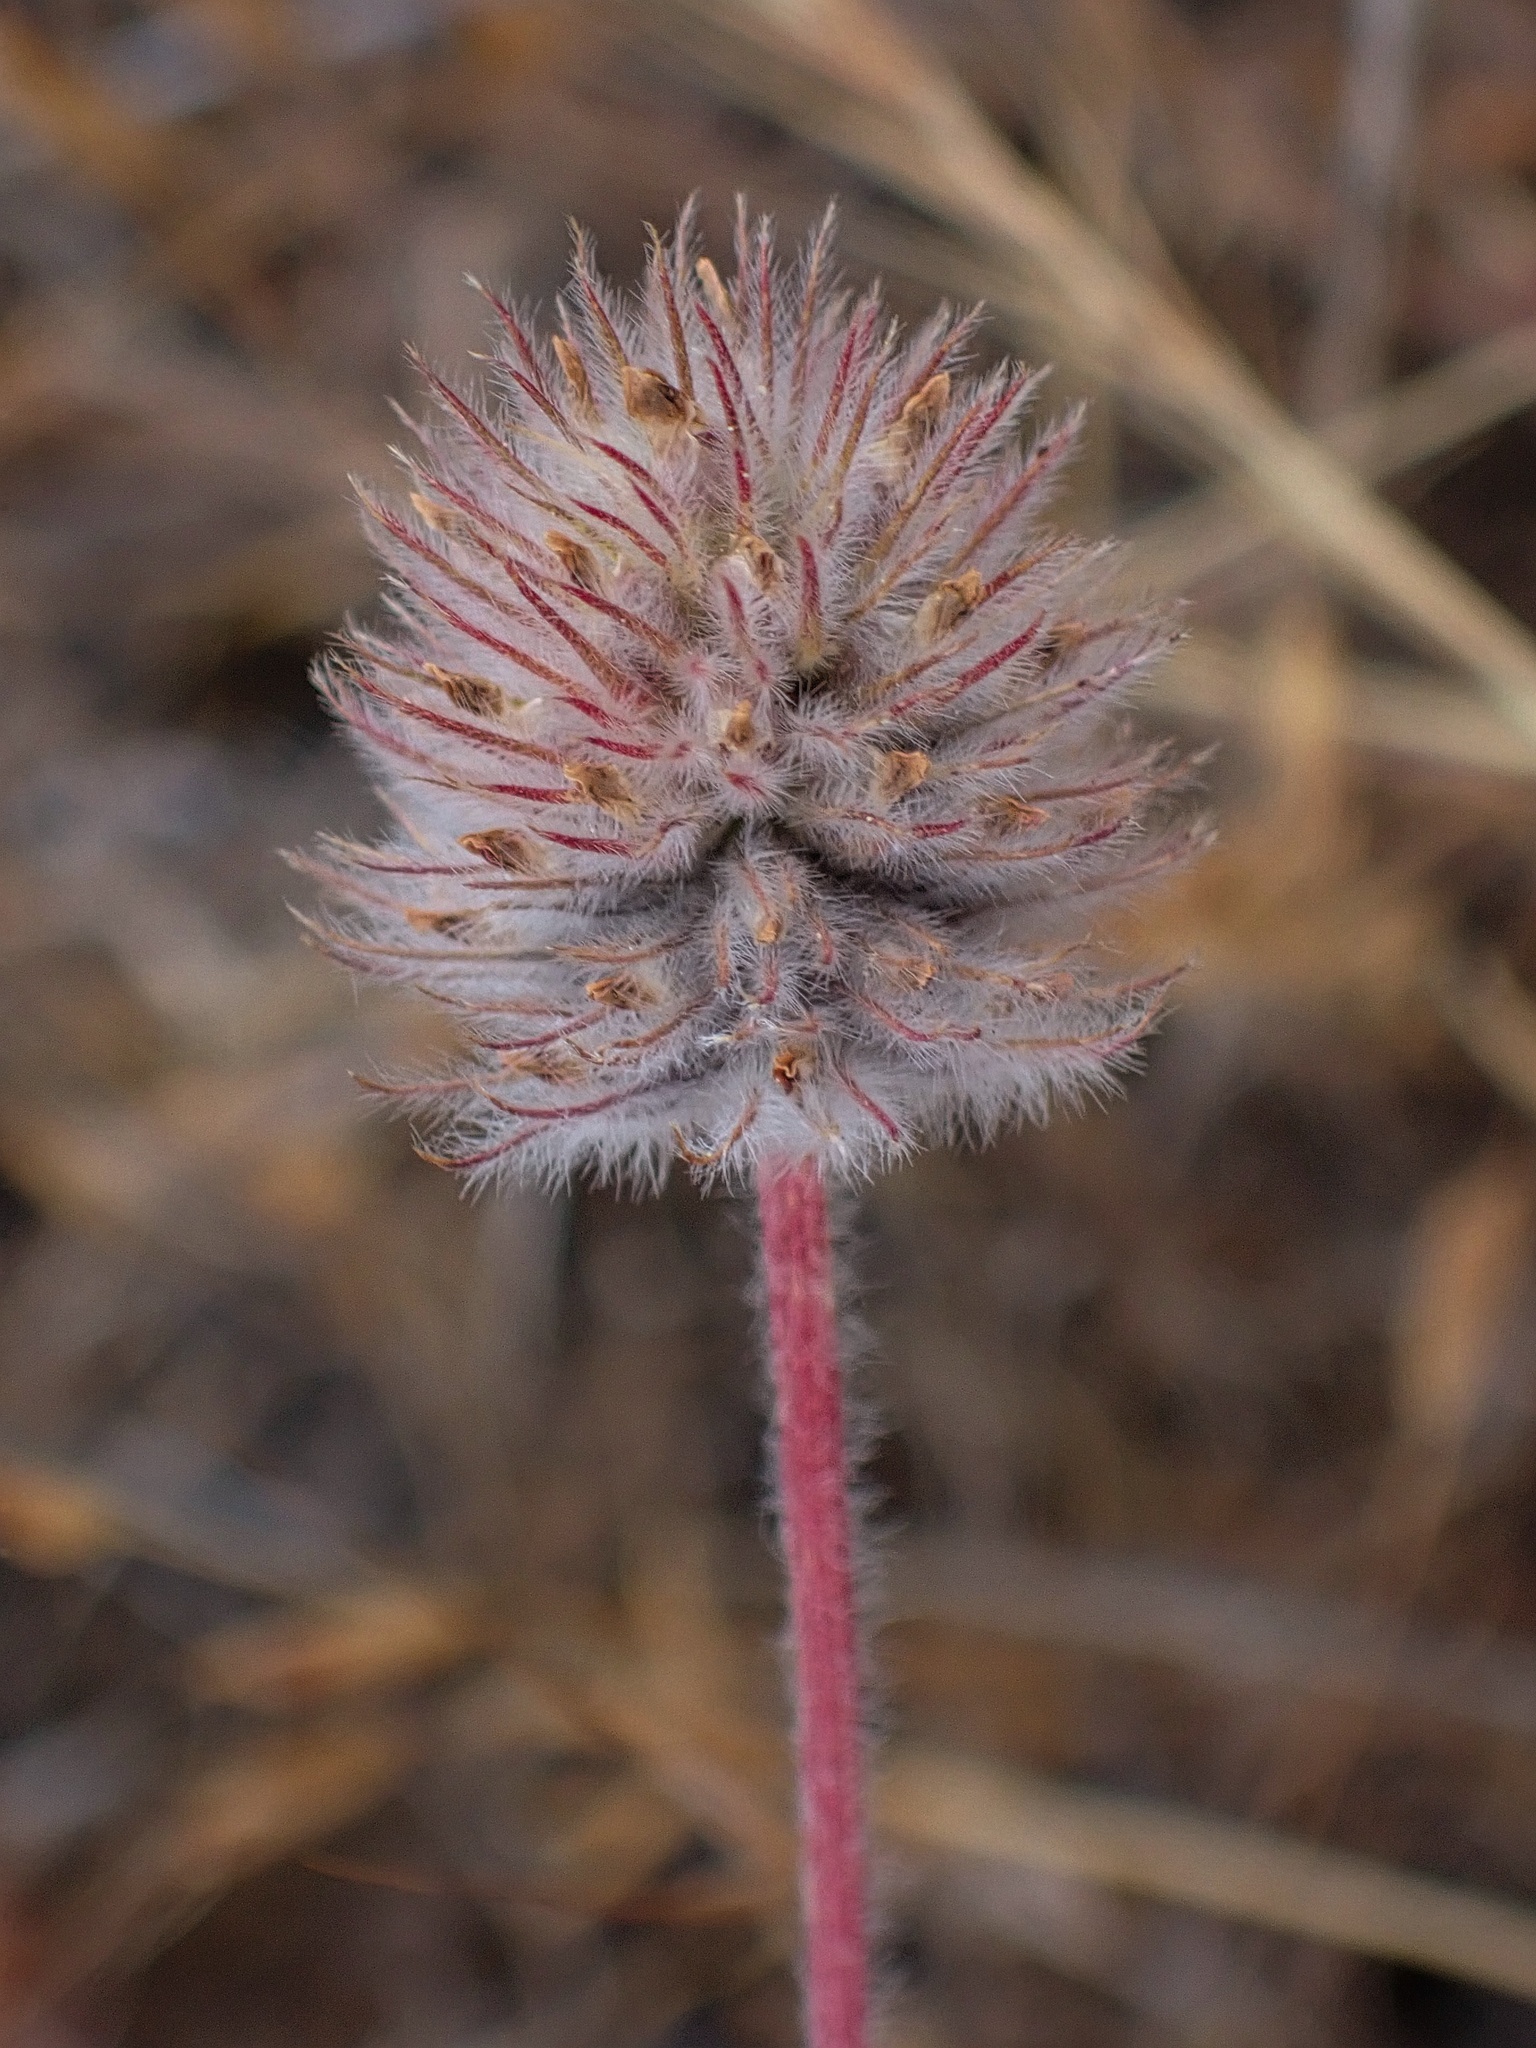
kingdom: Plantae
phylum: Tracheophyta
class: Magnoliopsida
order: Fabales
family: Fabaceae
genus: Trifolium
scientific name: Trifolium albopurpureum
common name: Rancheria clover
